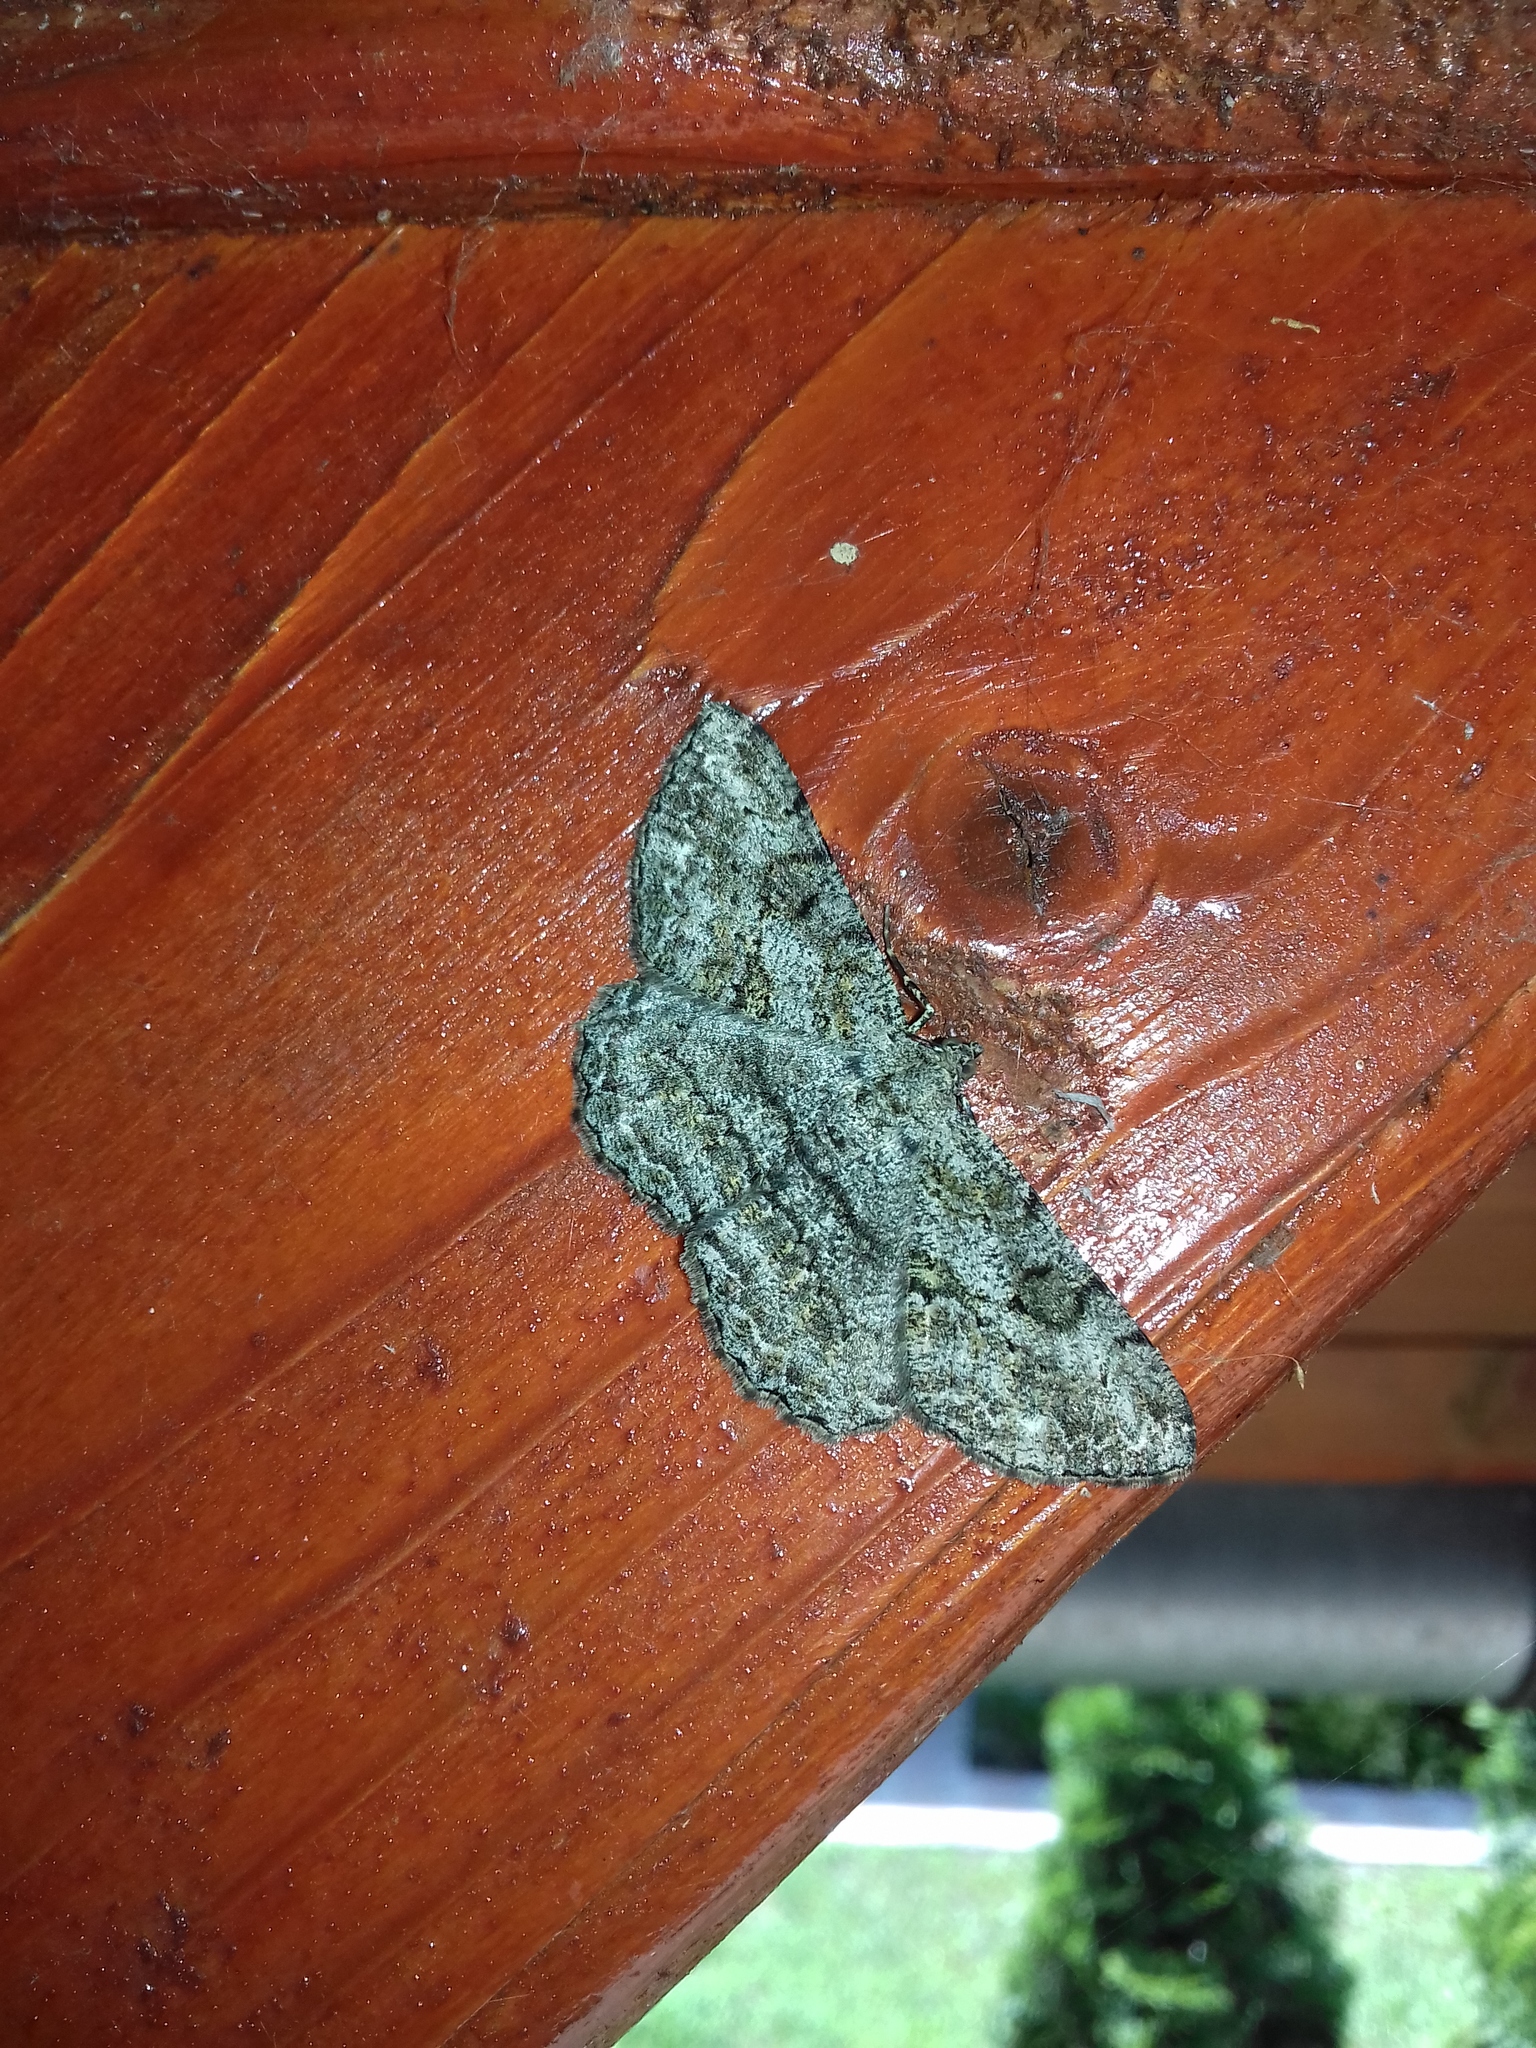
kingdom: Animalia
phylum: Arthropoda
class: Insecta
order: Lepidoptera
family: Geometridae
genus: Peribatodes
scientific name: Peribatodes rhomboidaria
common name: Willow beauty
